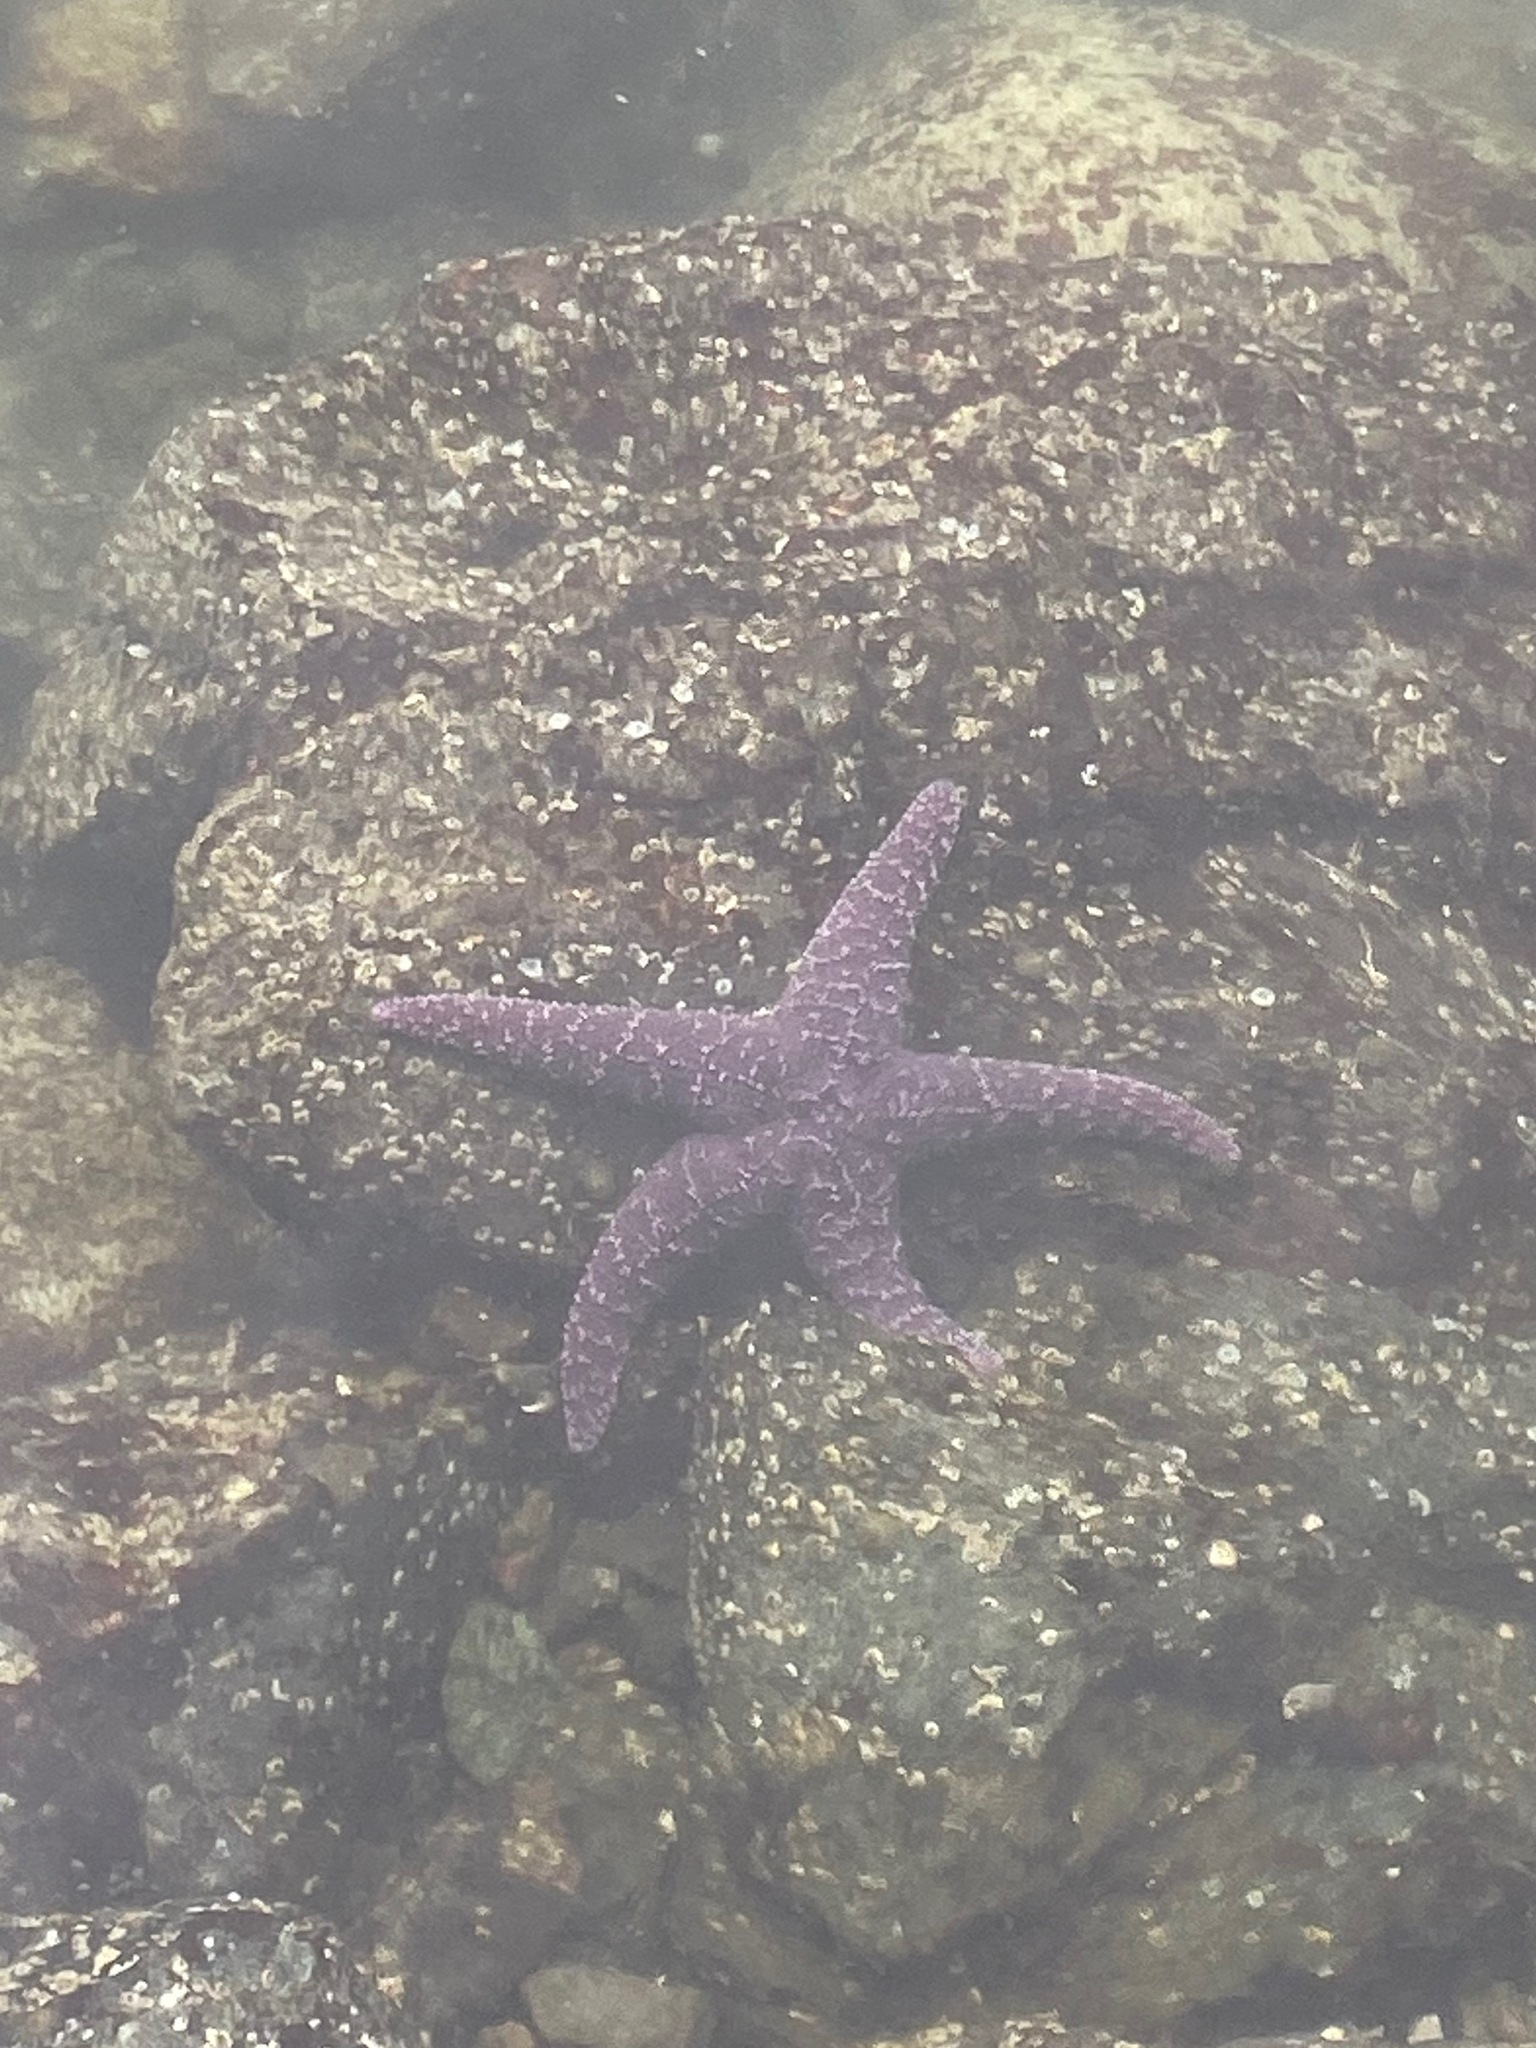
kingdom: Animalia
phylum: Echinodermata
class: Asteroidea
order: Forcipulatida
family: Asteriidae
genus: Pisaster
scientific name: Pisaster ochraceus
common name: Ochre stars
